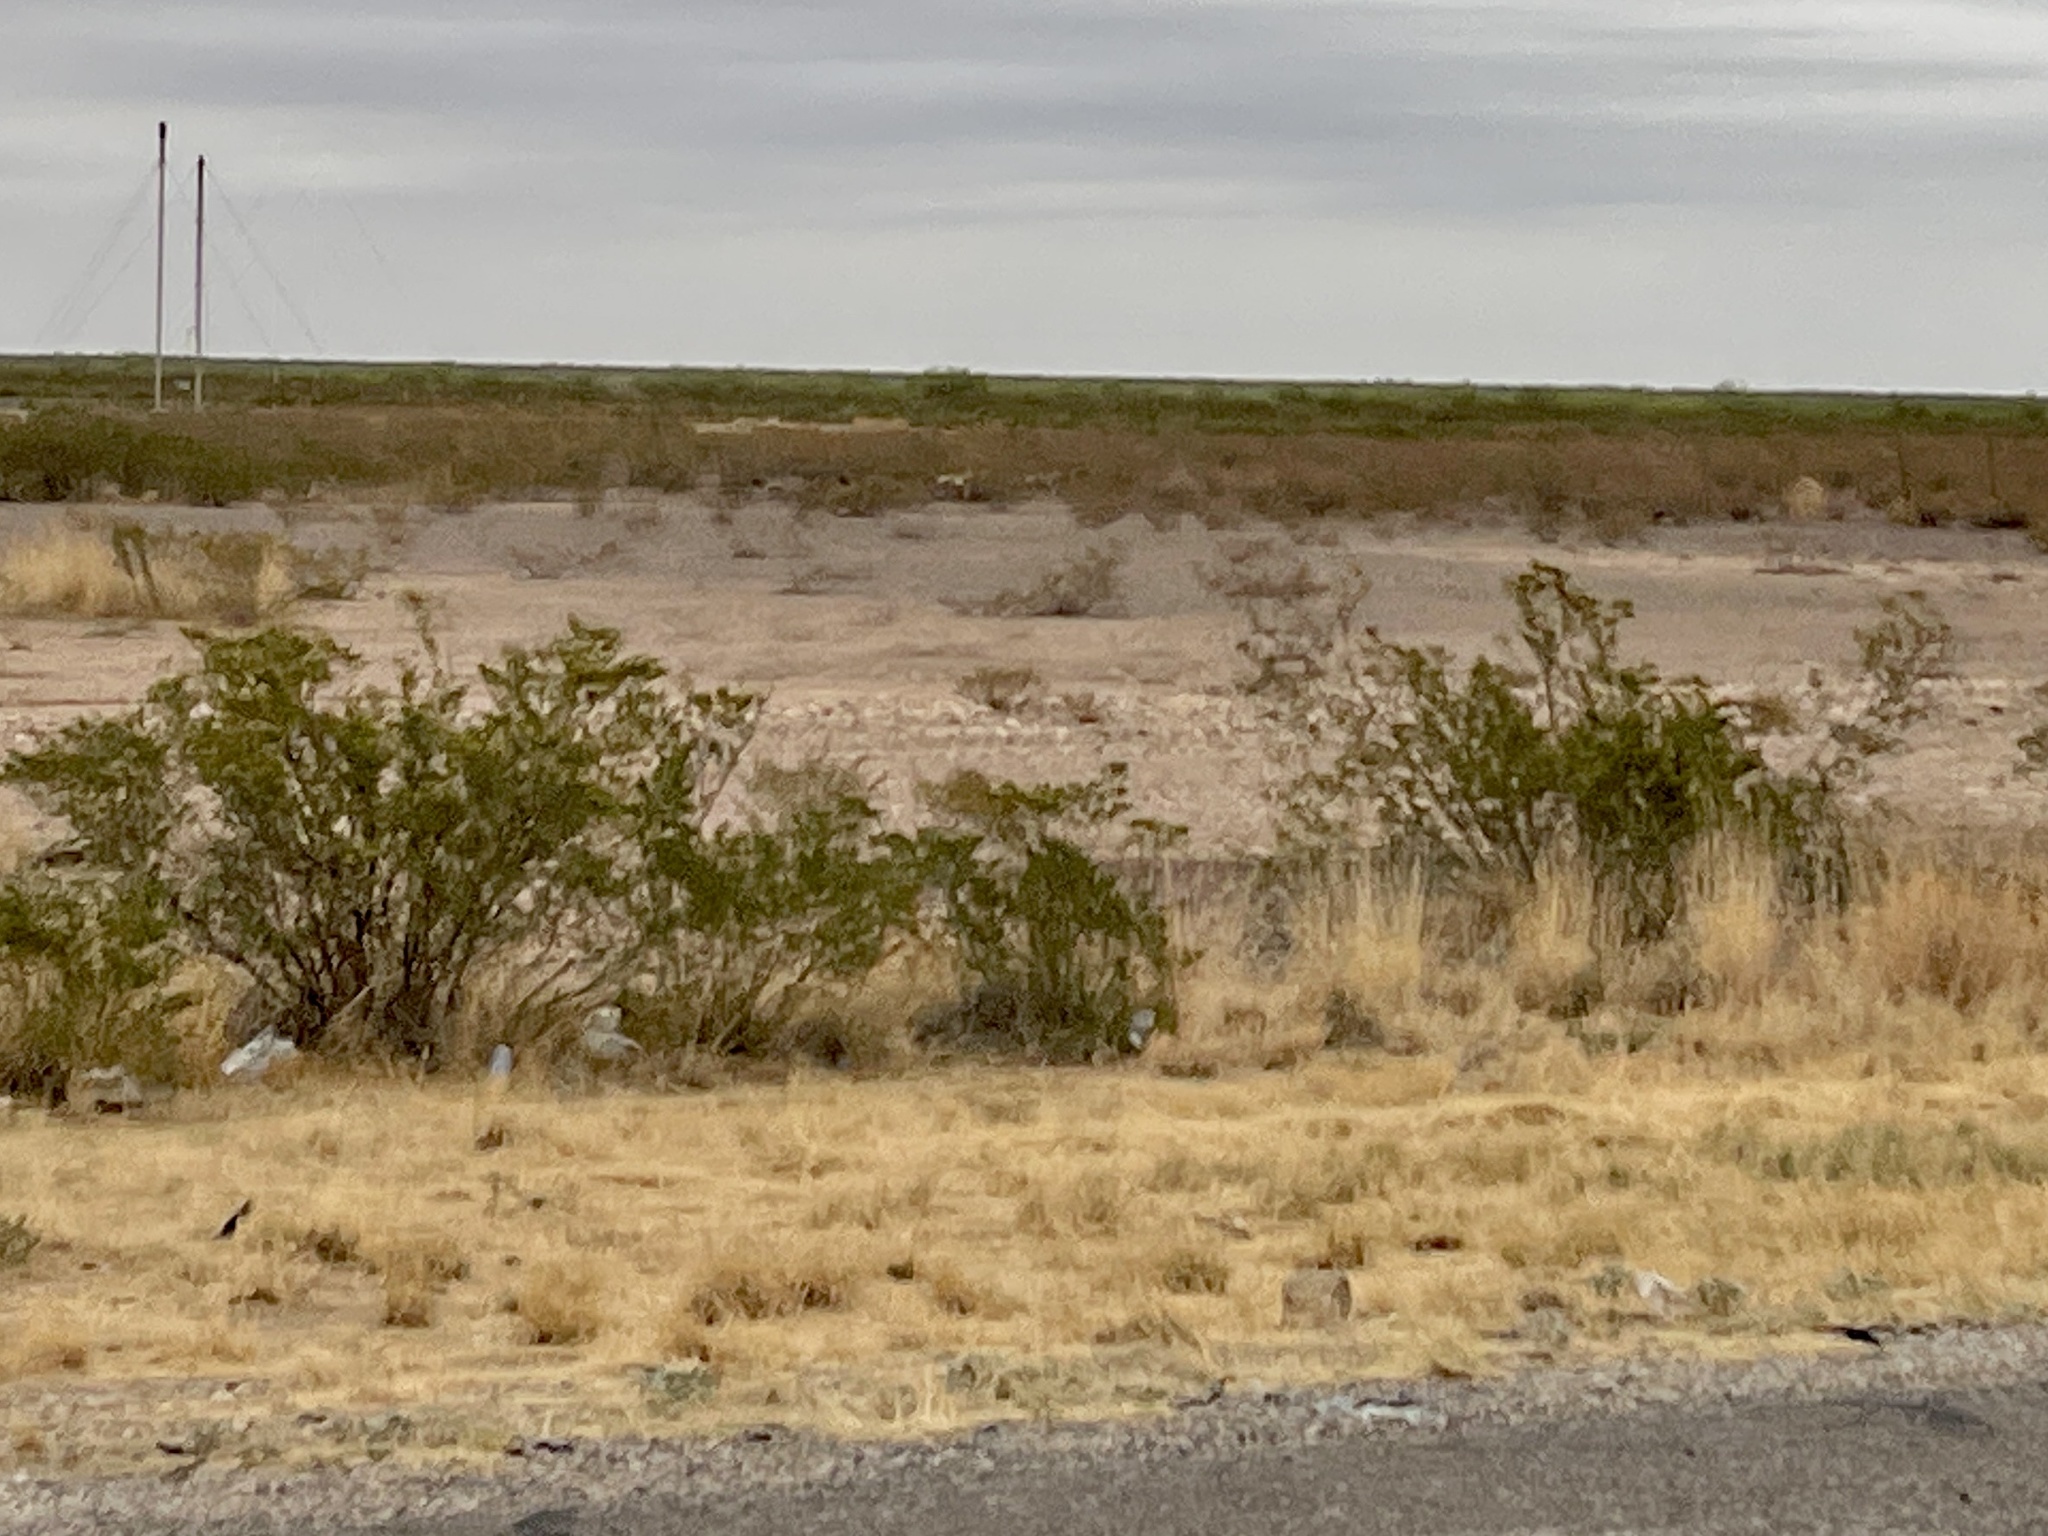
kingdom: Plantae
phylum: Tracheophyta
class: Magnoliopsida
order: Zygophyllales
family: Zygophyllaceae
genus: Larrea
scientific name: Larrea tridentata
